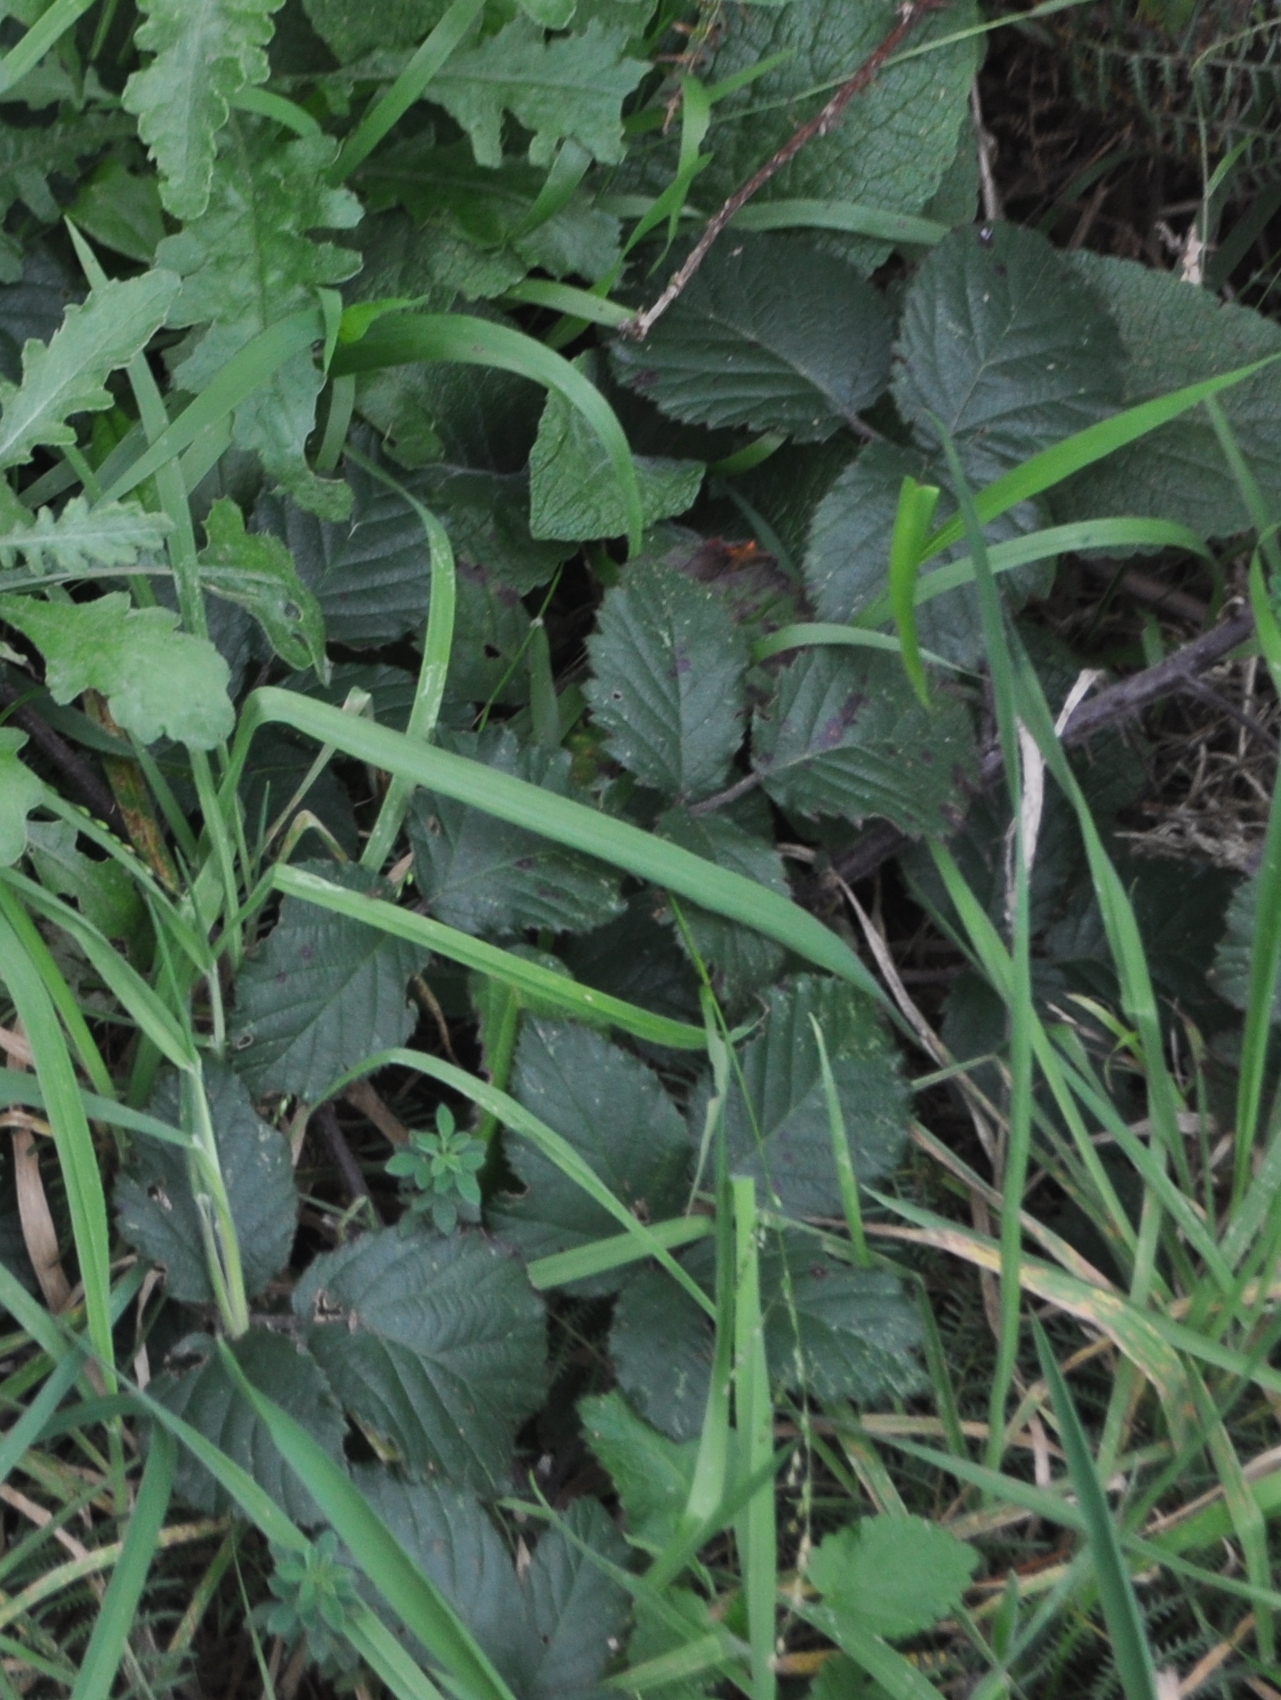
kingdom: Plantae
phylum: Tracheophyta
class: Magnoliopsida
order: Rosales
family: Rosaceae
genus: Rubus
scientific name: Rubus
